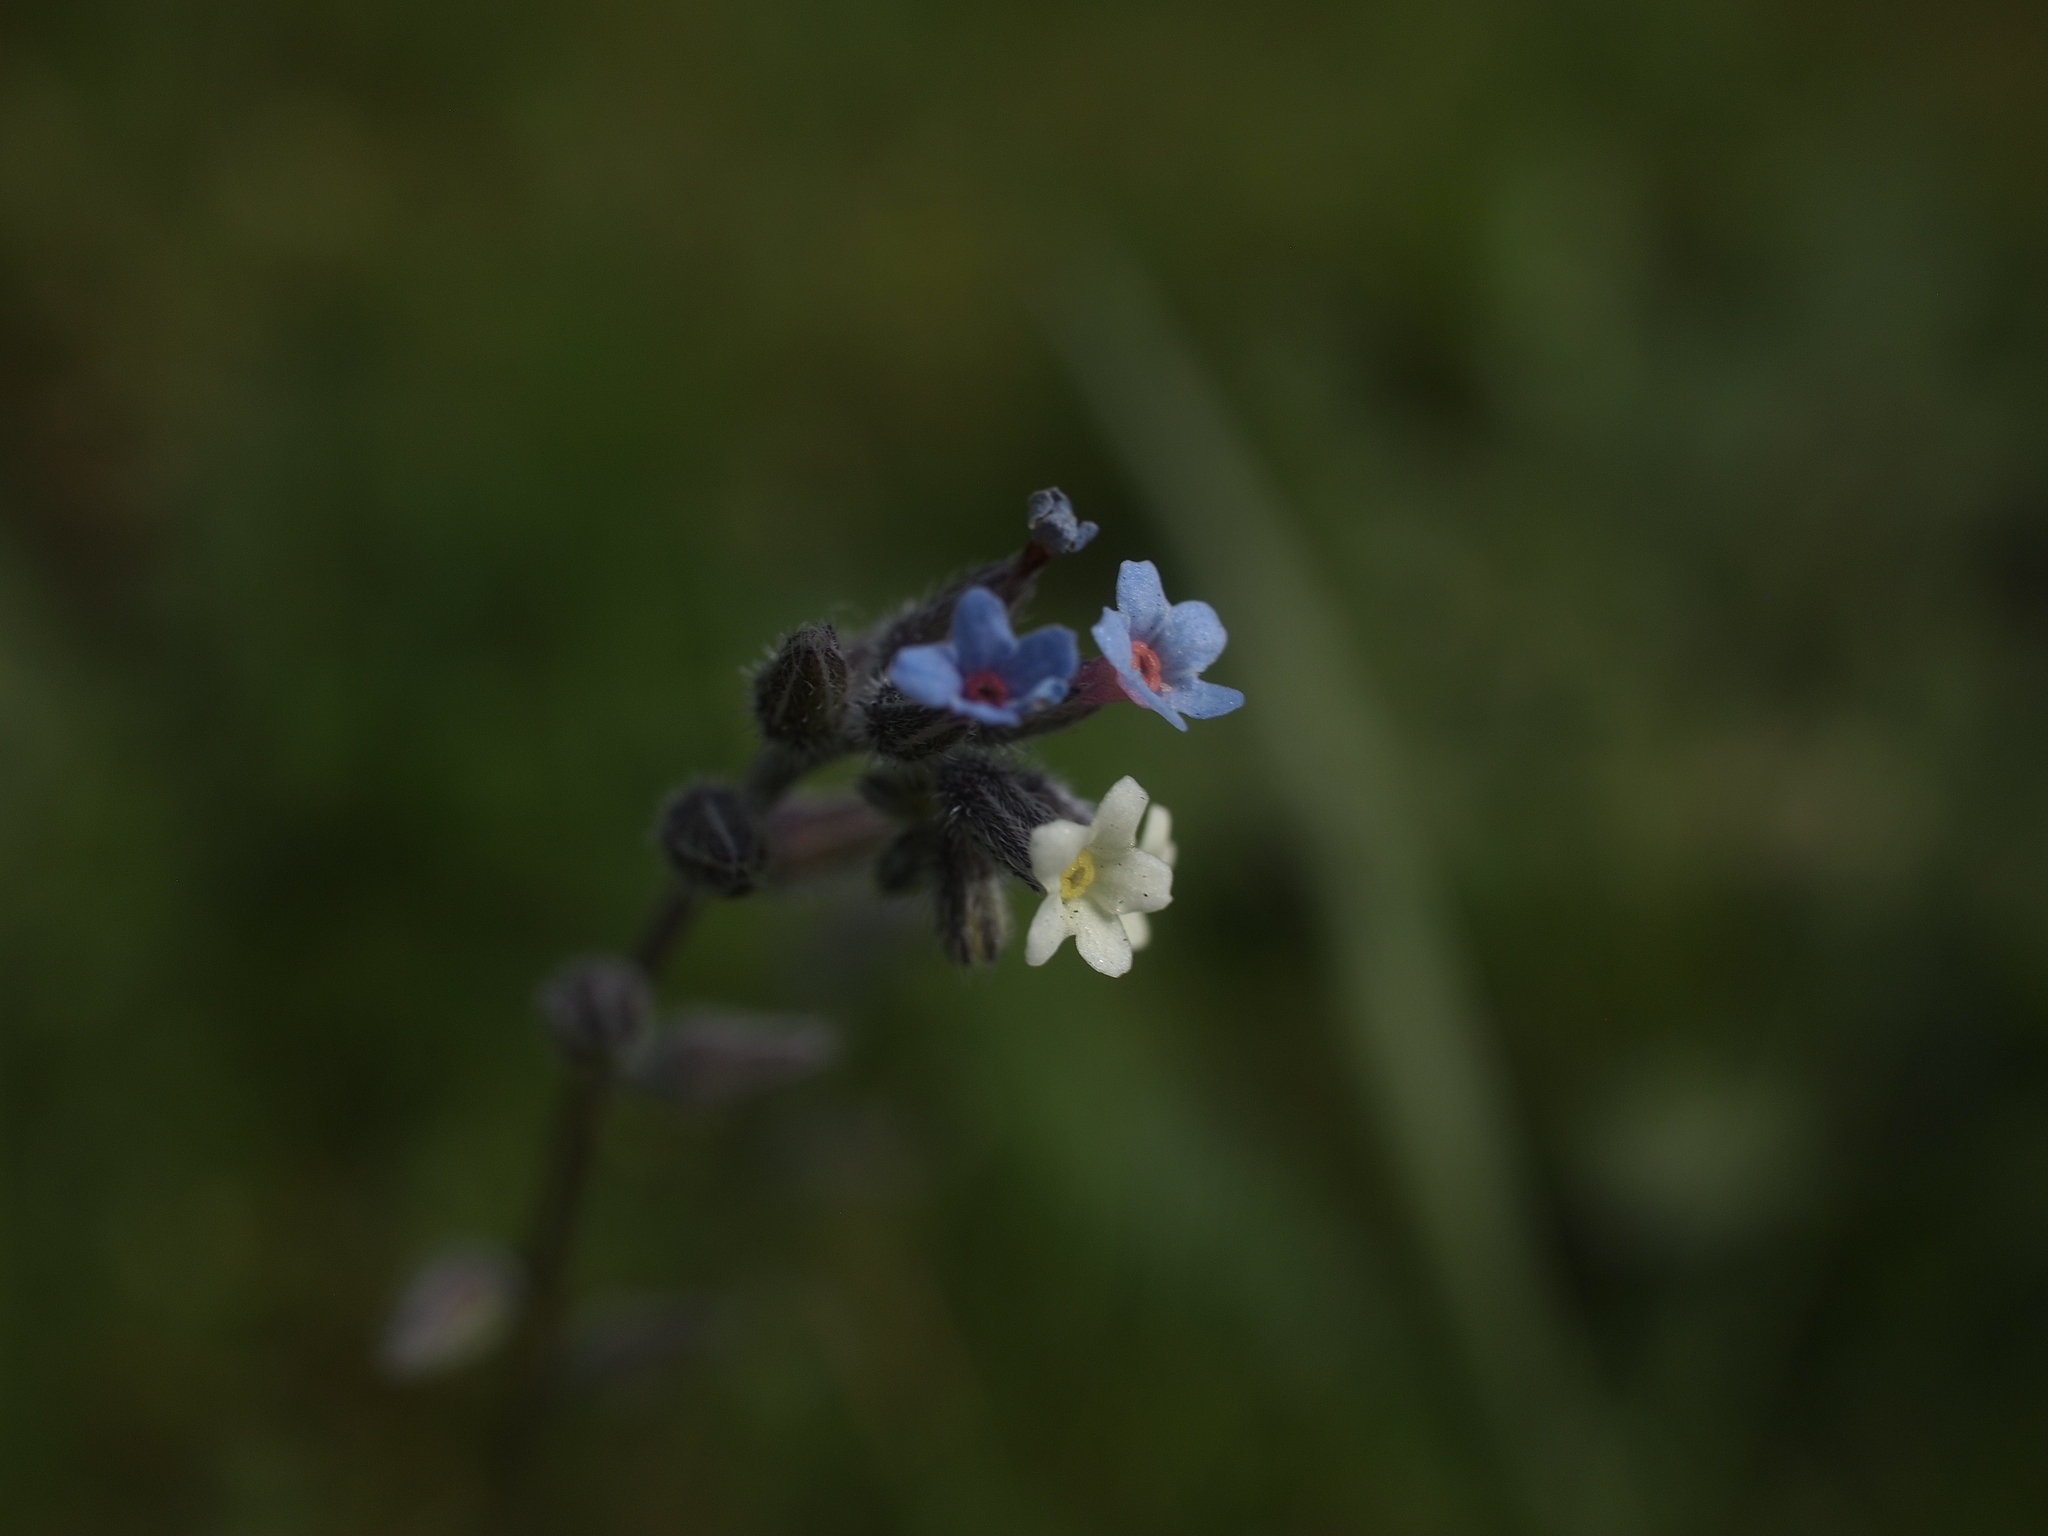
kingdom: Plantae
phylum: Tracheophyta
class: Magnoliopsida
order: Boraginales
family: Boraginaceae
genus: Myosotis
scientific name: Myosotis discolor
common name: Changing forget-me-not
